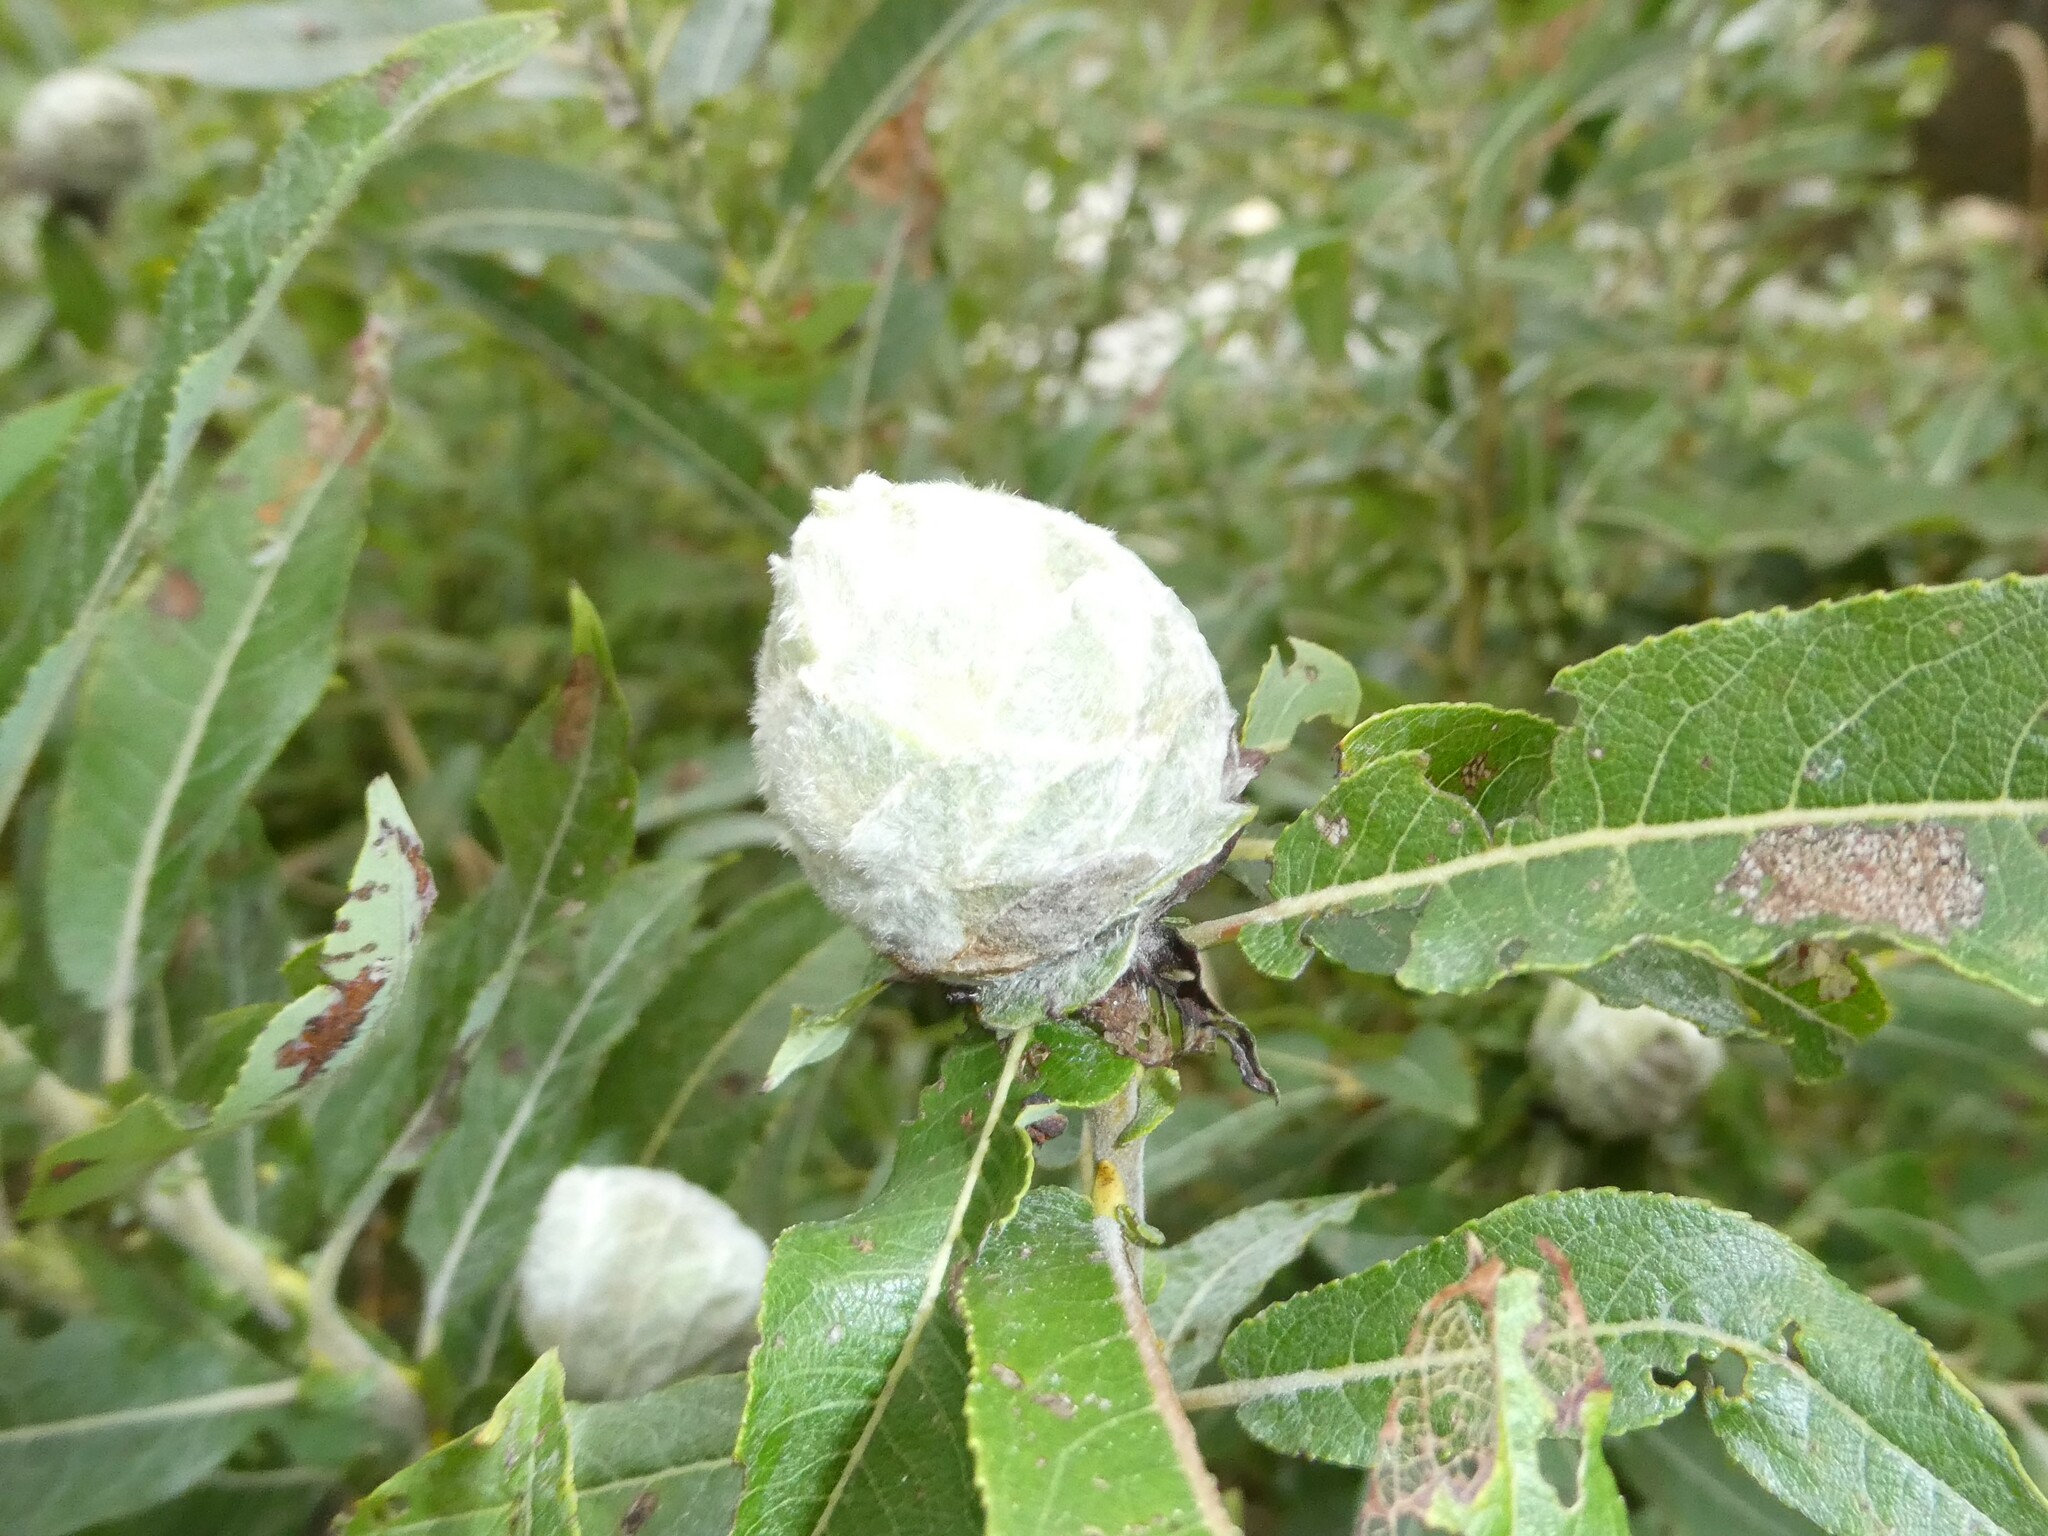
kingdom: Animalia
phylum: Arthropoda
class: Insecta
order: Diptera
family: Cecidomyiidae
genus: Rabdophaga
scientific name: Rabdophaga strobiloides
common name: Willow pinecone gall midge
